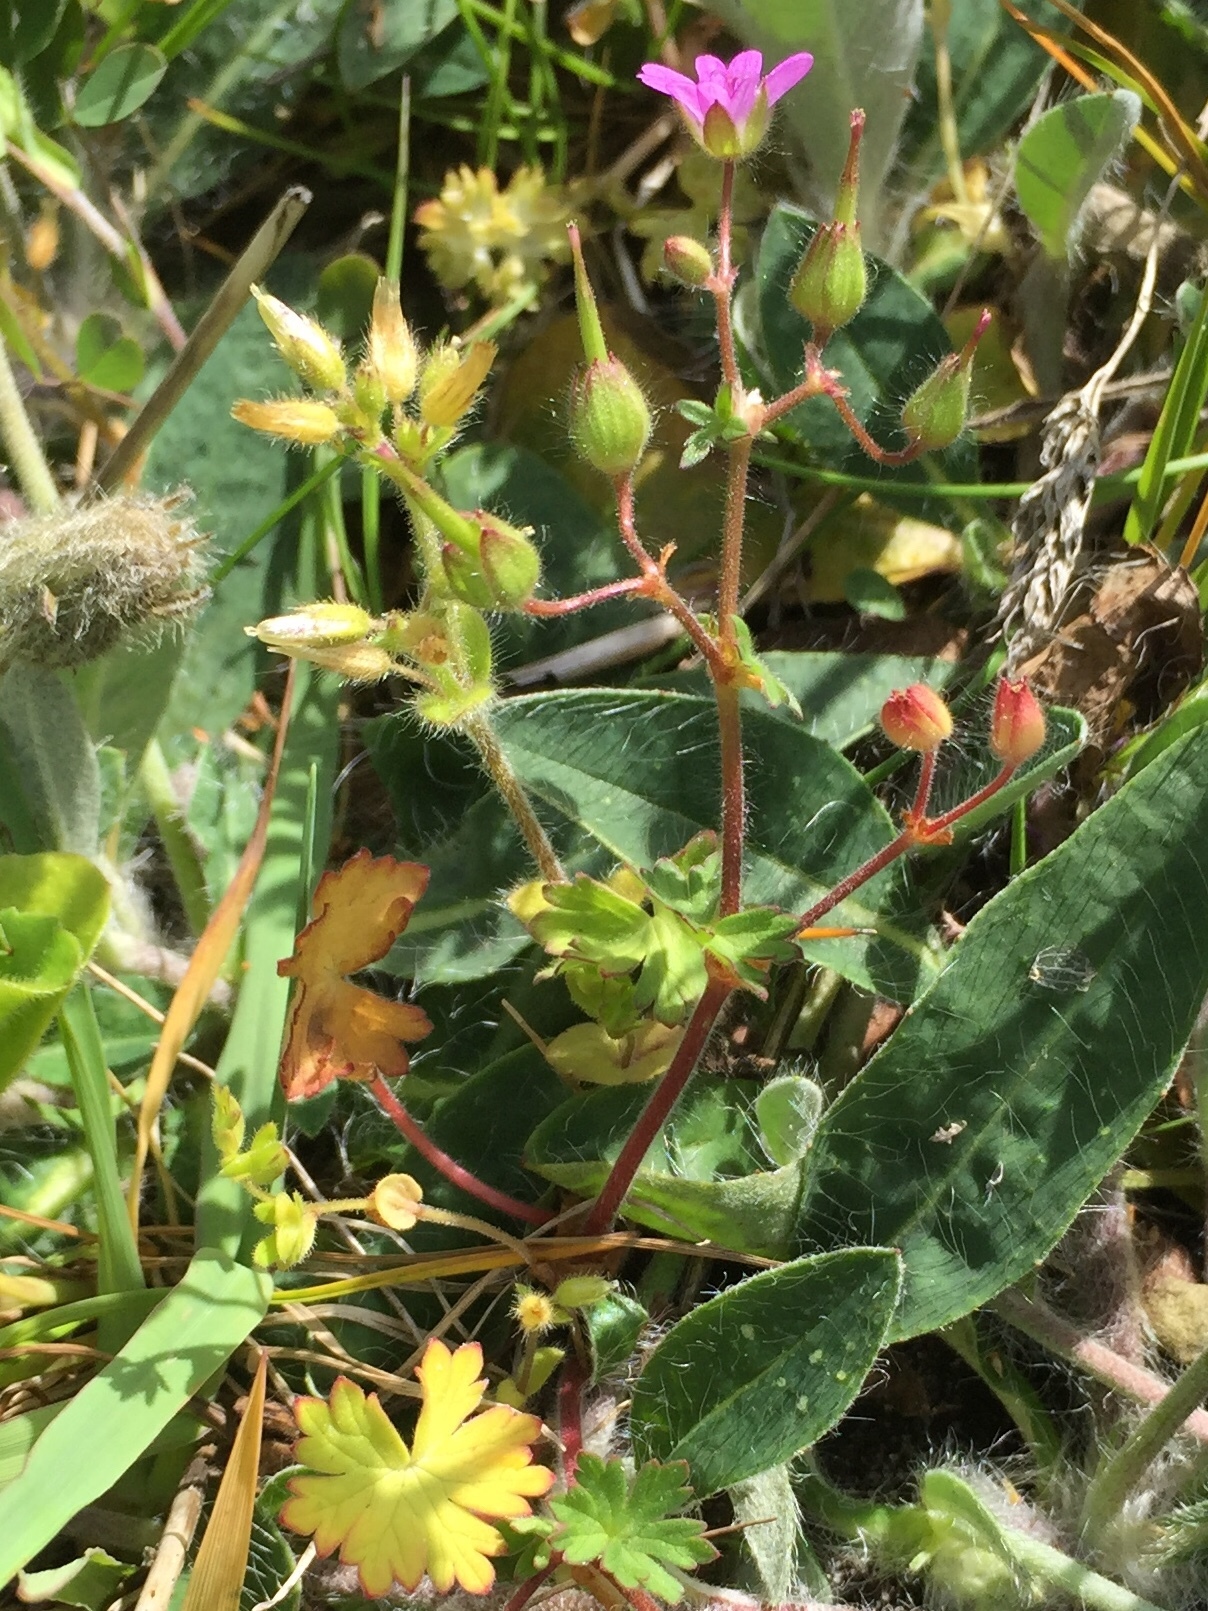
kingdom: Plantae
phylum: Tracheophyta
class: Magnoliopsida
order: Geraniales
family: Geraniaceae
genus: Geranium
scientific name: Geranium pusillum
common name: Small geranium
